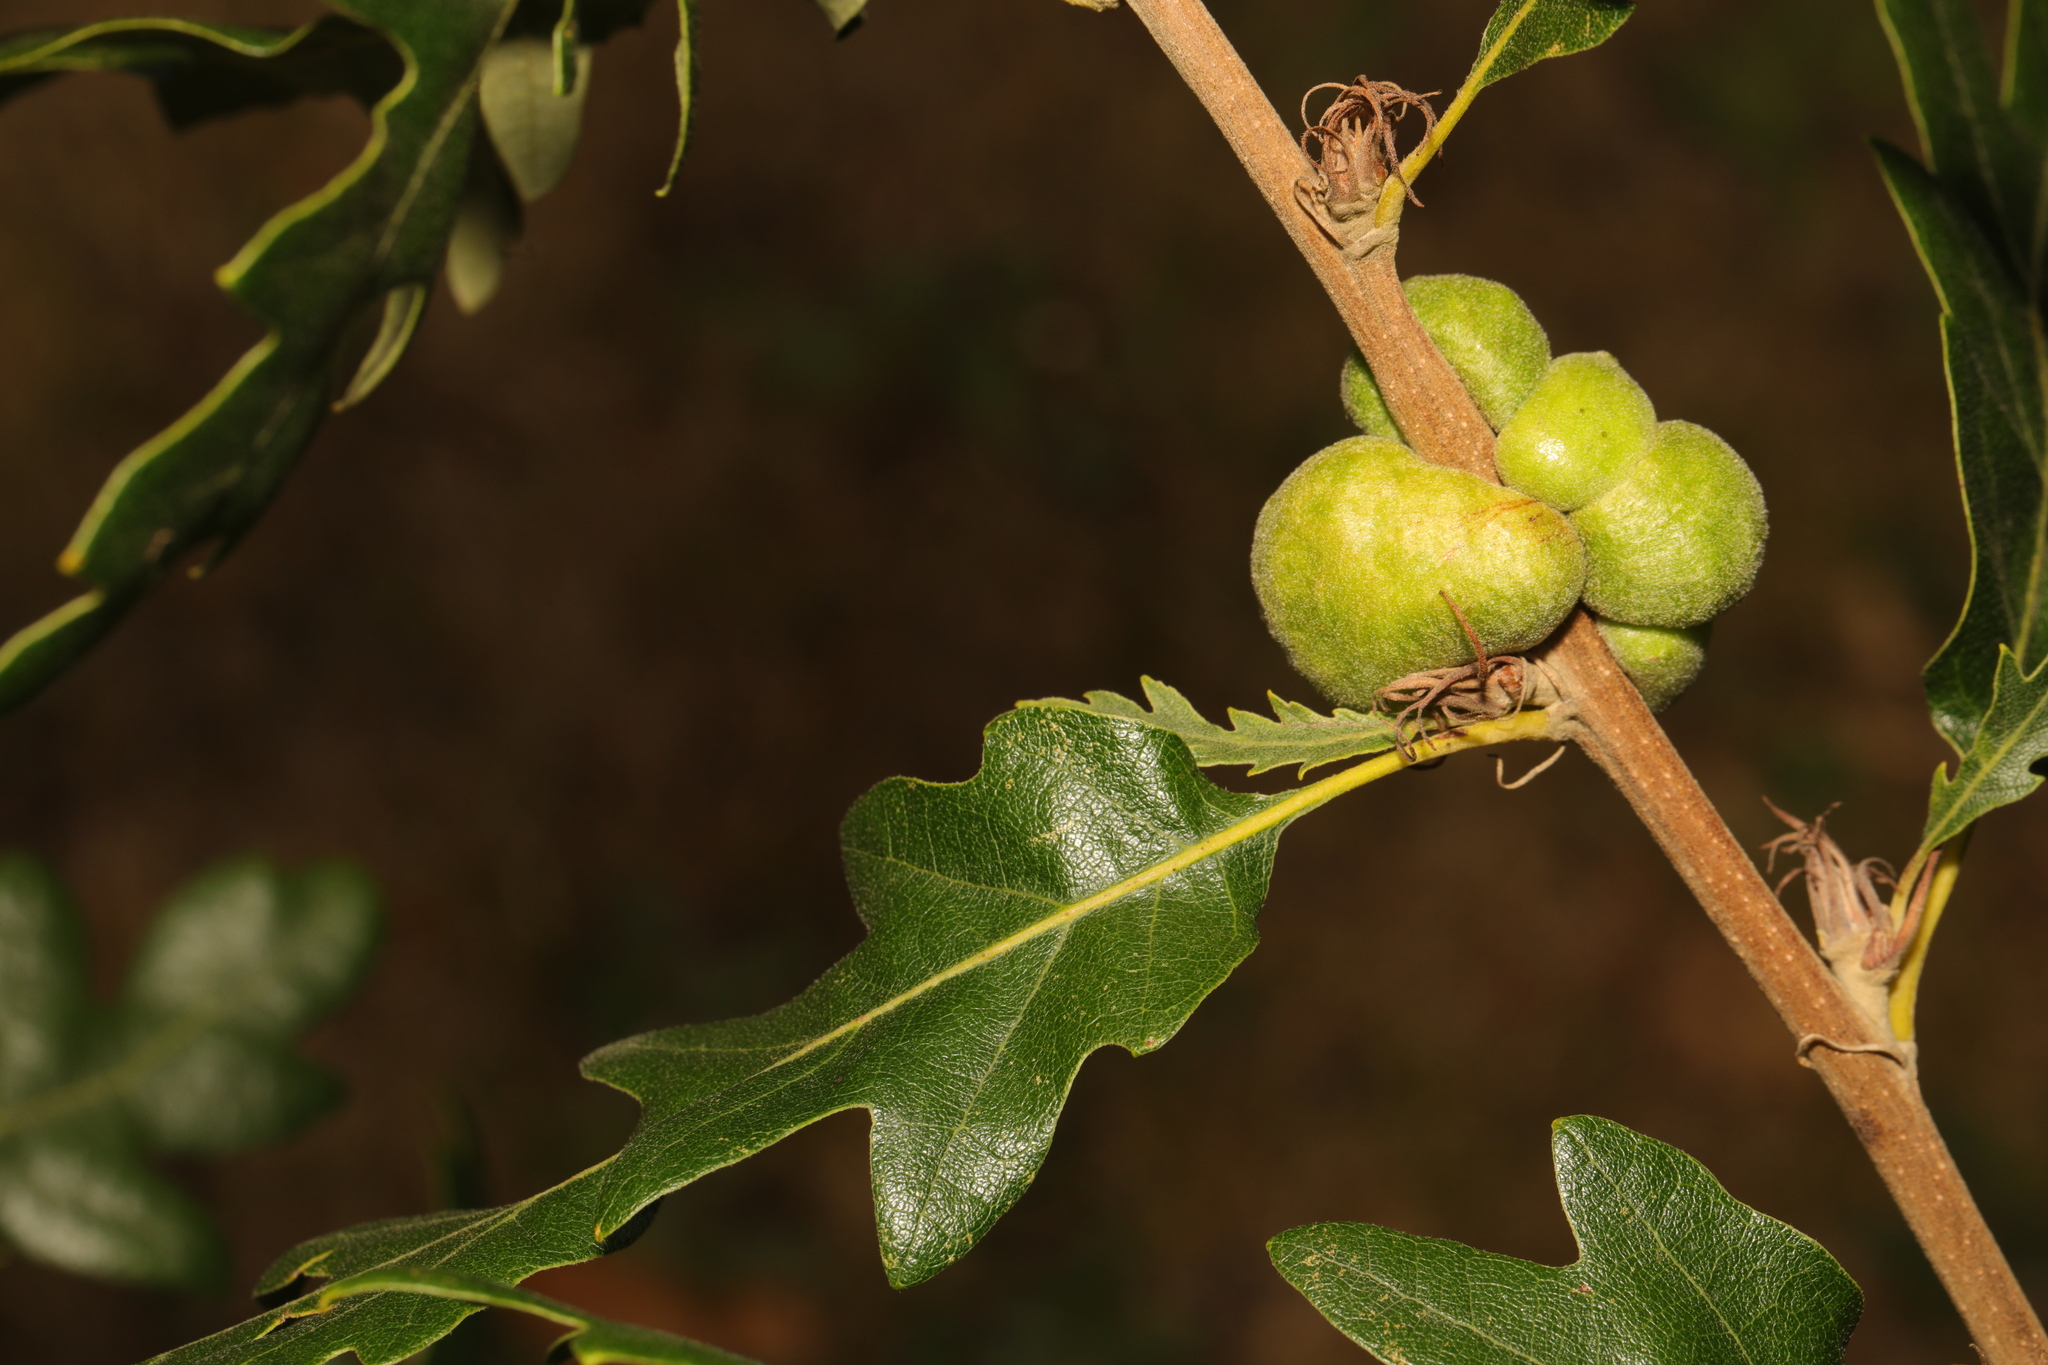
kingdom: Animalia
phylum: Arthropoda
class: Insecta
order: Hymenoptera
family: Cynipidae
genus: Aphelonyx
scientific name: Aphelonyx cerricola
